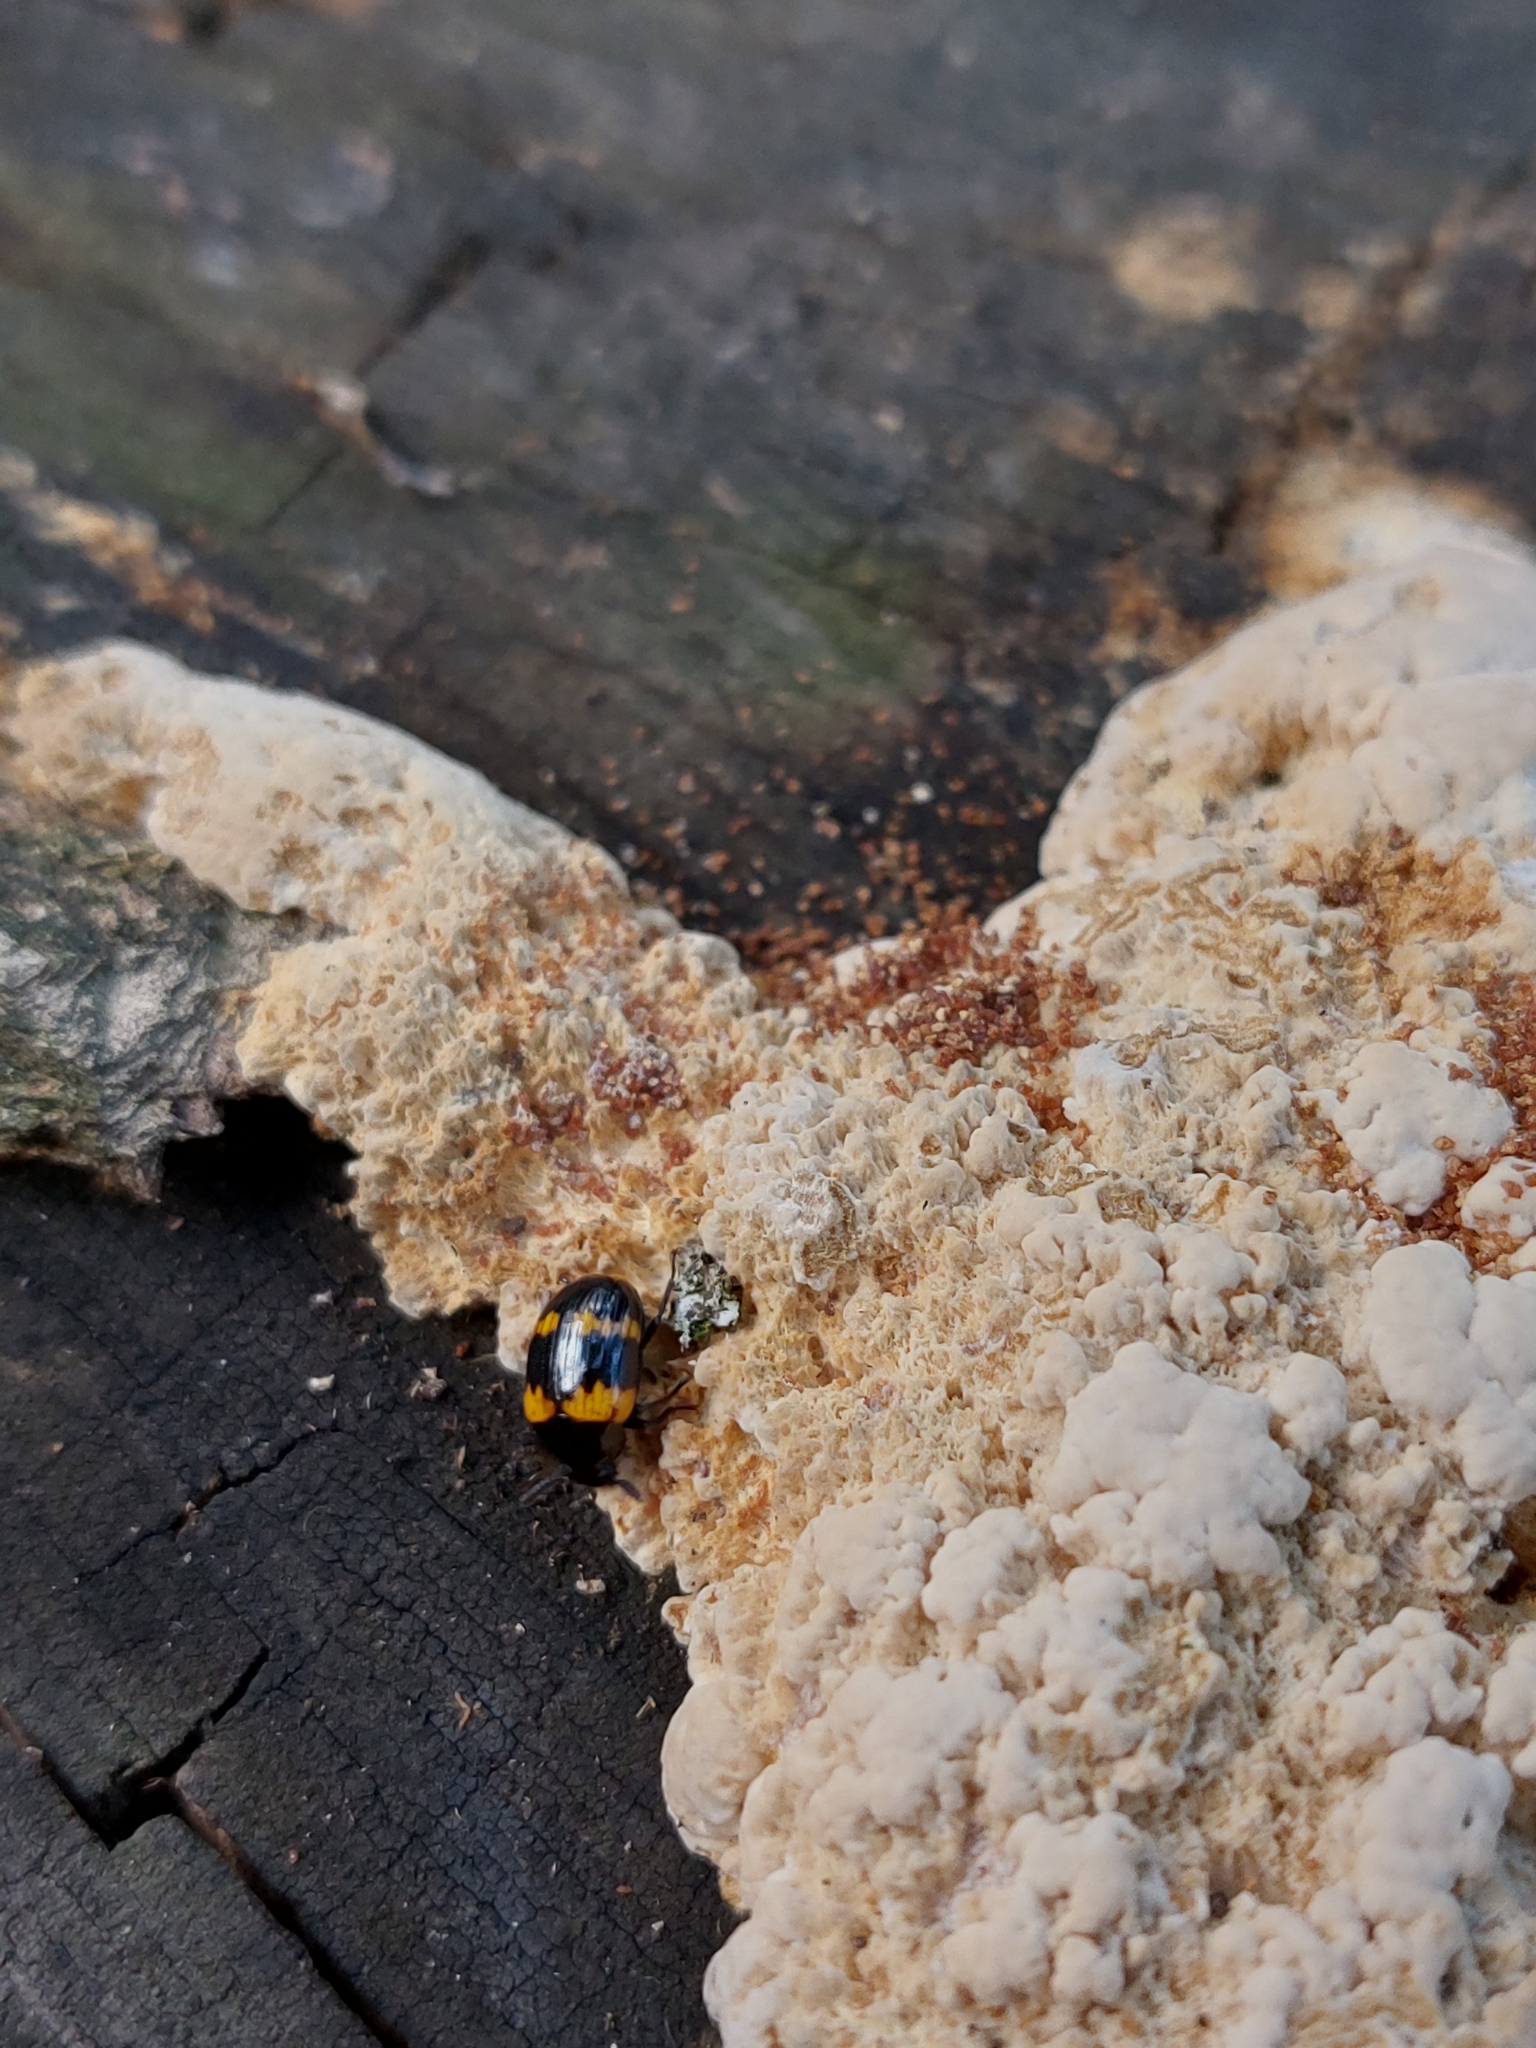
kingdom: Animalia
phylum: Arthropoda
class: Insecta
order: Coleoptera
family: Tenebrionidae
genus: Diaperis
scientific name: Diaperis boleti
